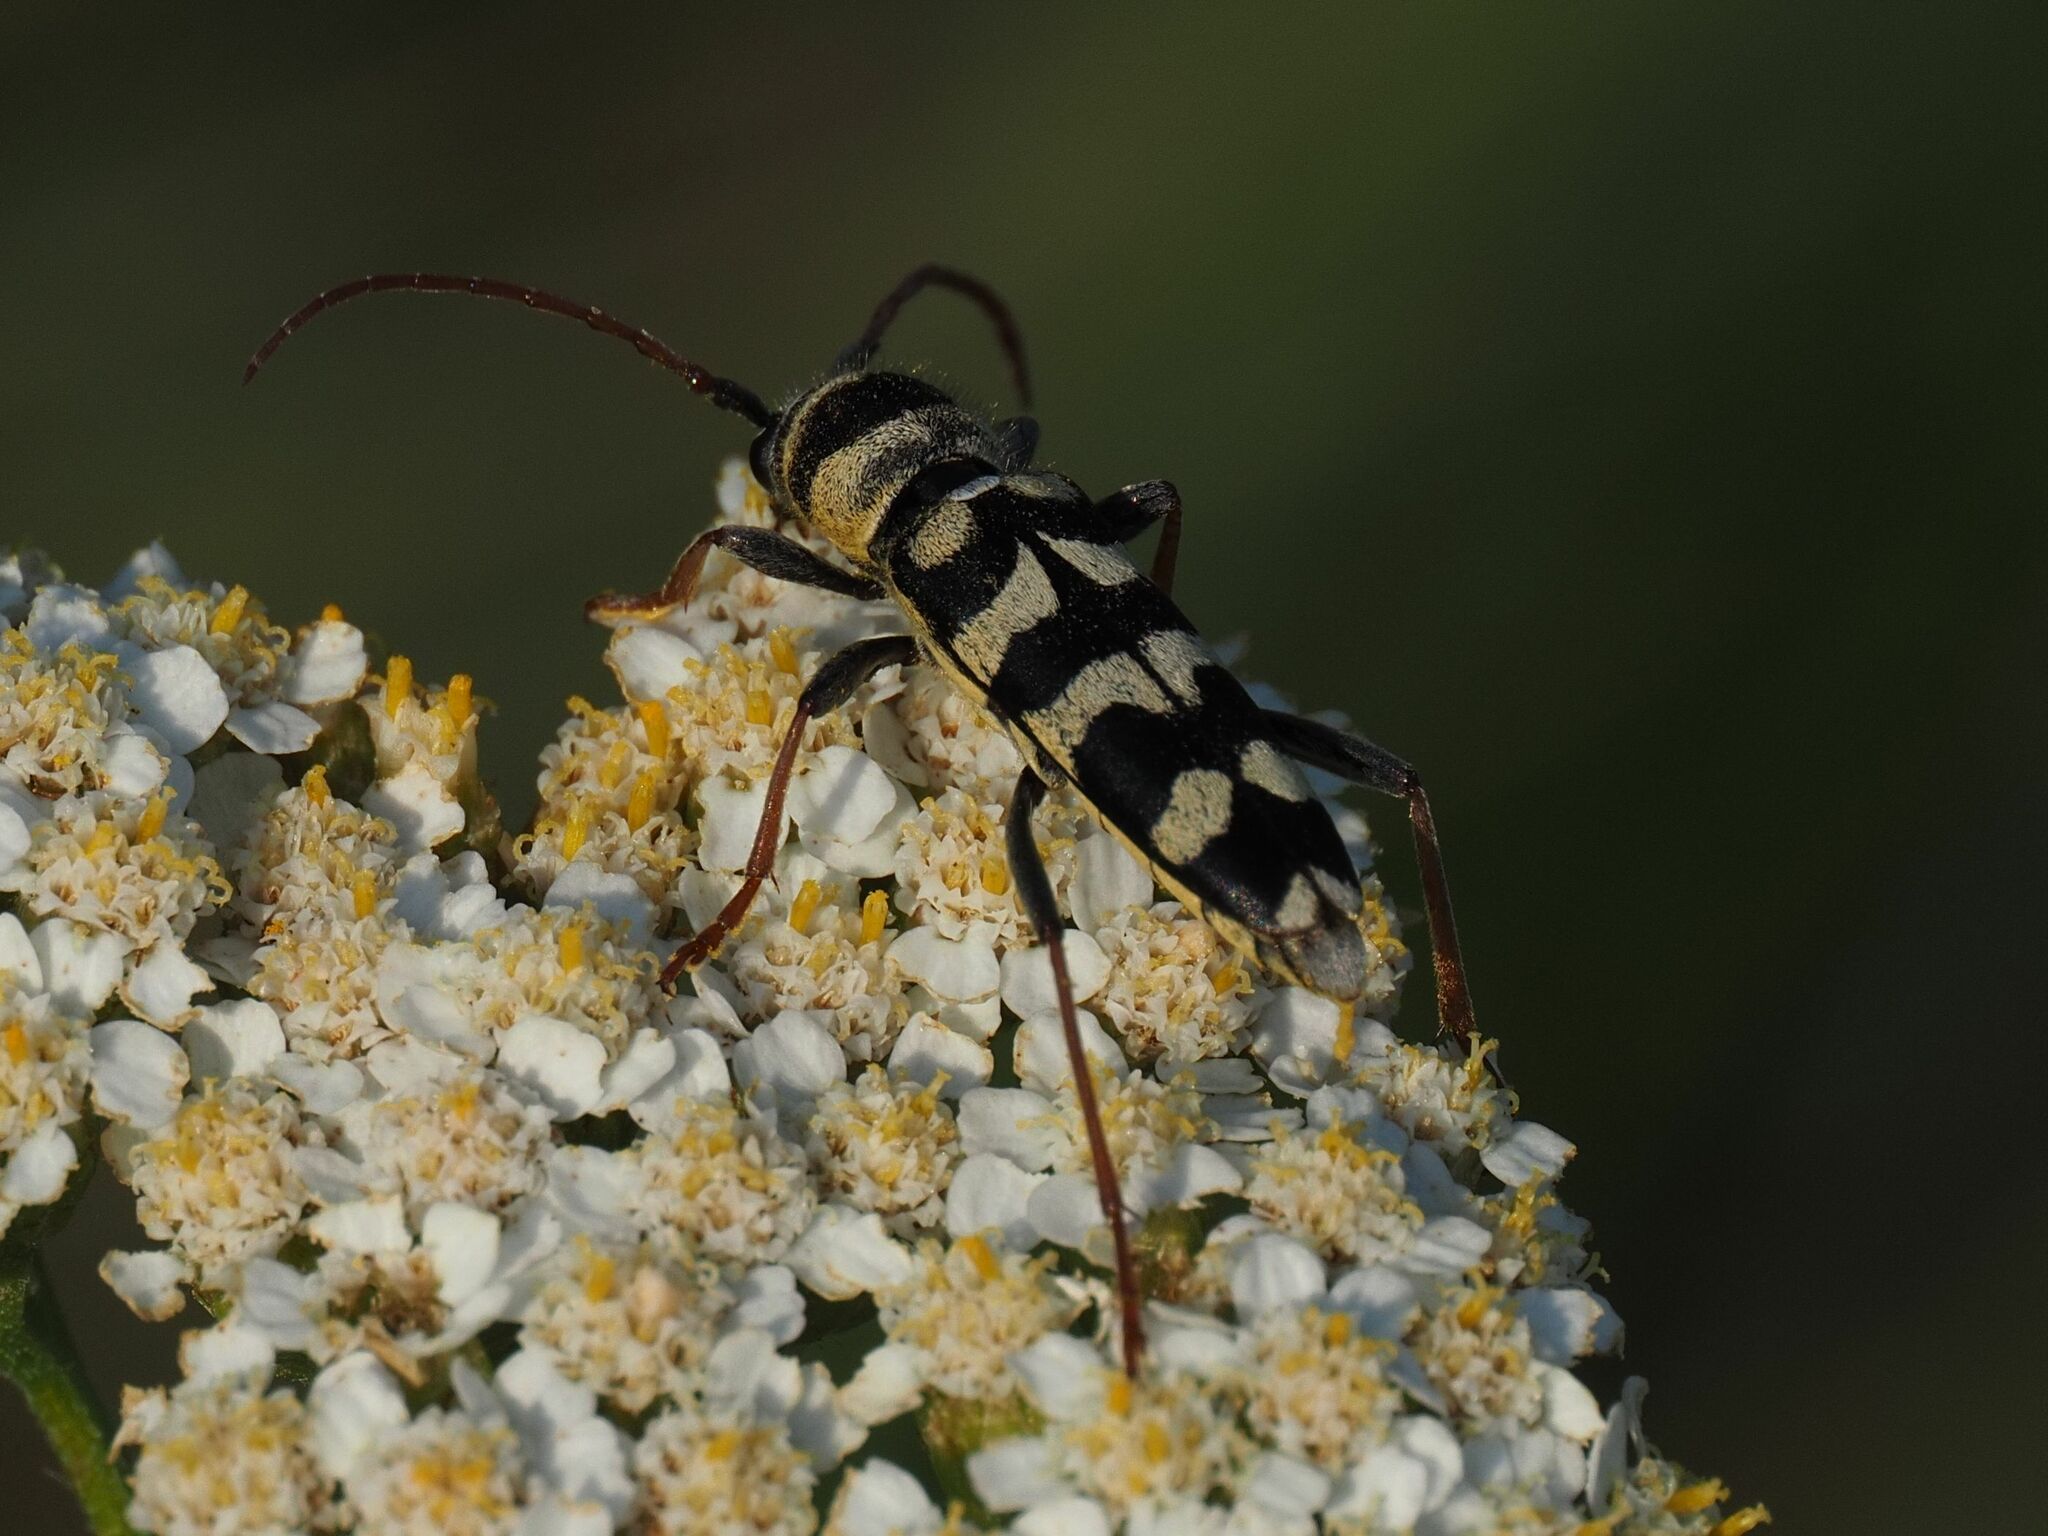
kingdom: Animalia
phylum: Arthropoda
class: Insecta
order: Coleoptera
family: Cerambycidae
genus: Plagionotus
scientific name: Plagionotus floralis
